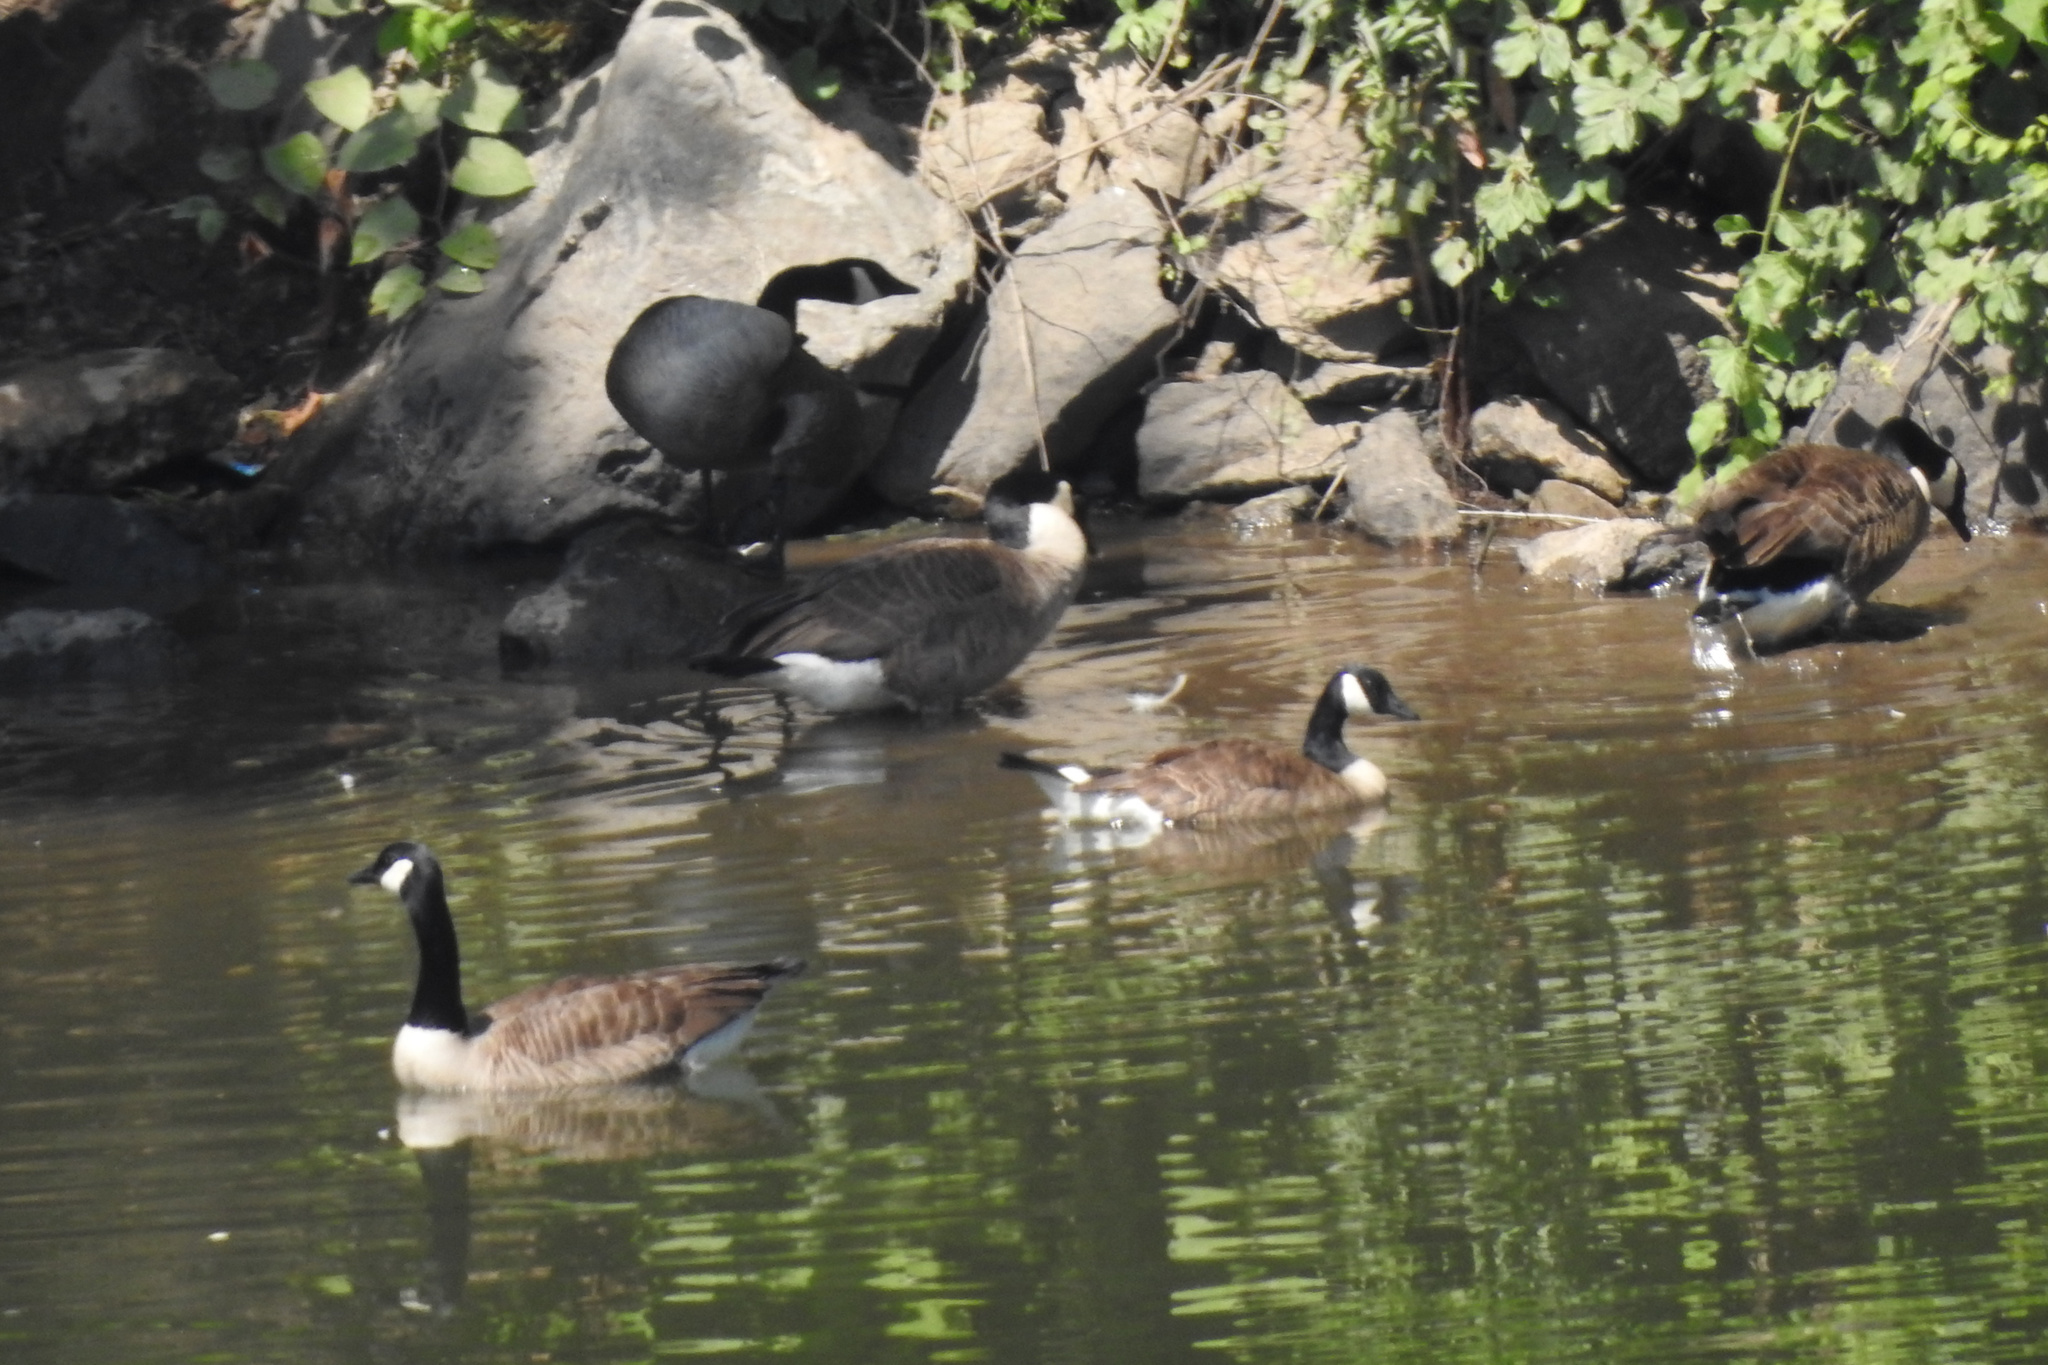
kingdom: Animalia
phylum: Chordata
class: Aves
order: Anseriformes
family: Anatidae
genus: Branta
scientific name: Branta canadensis
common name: Canada goose
